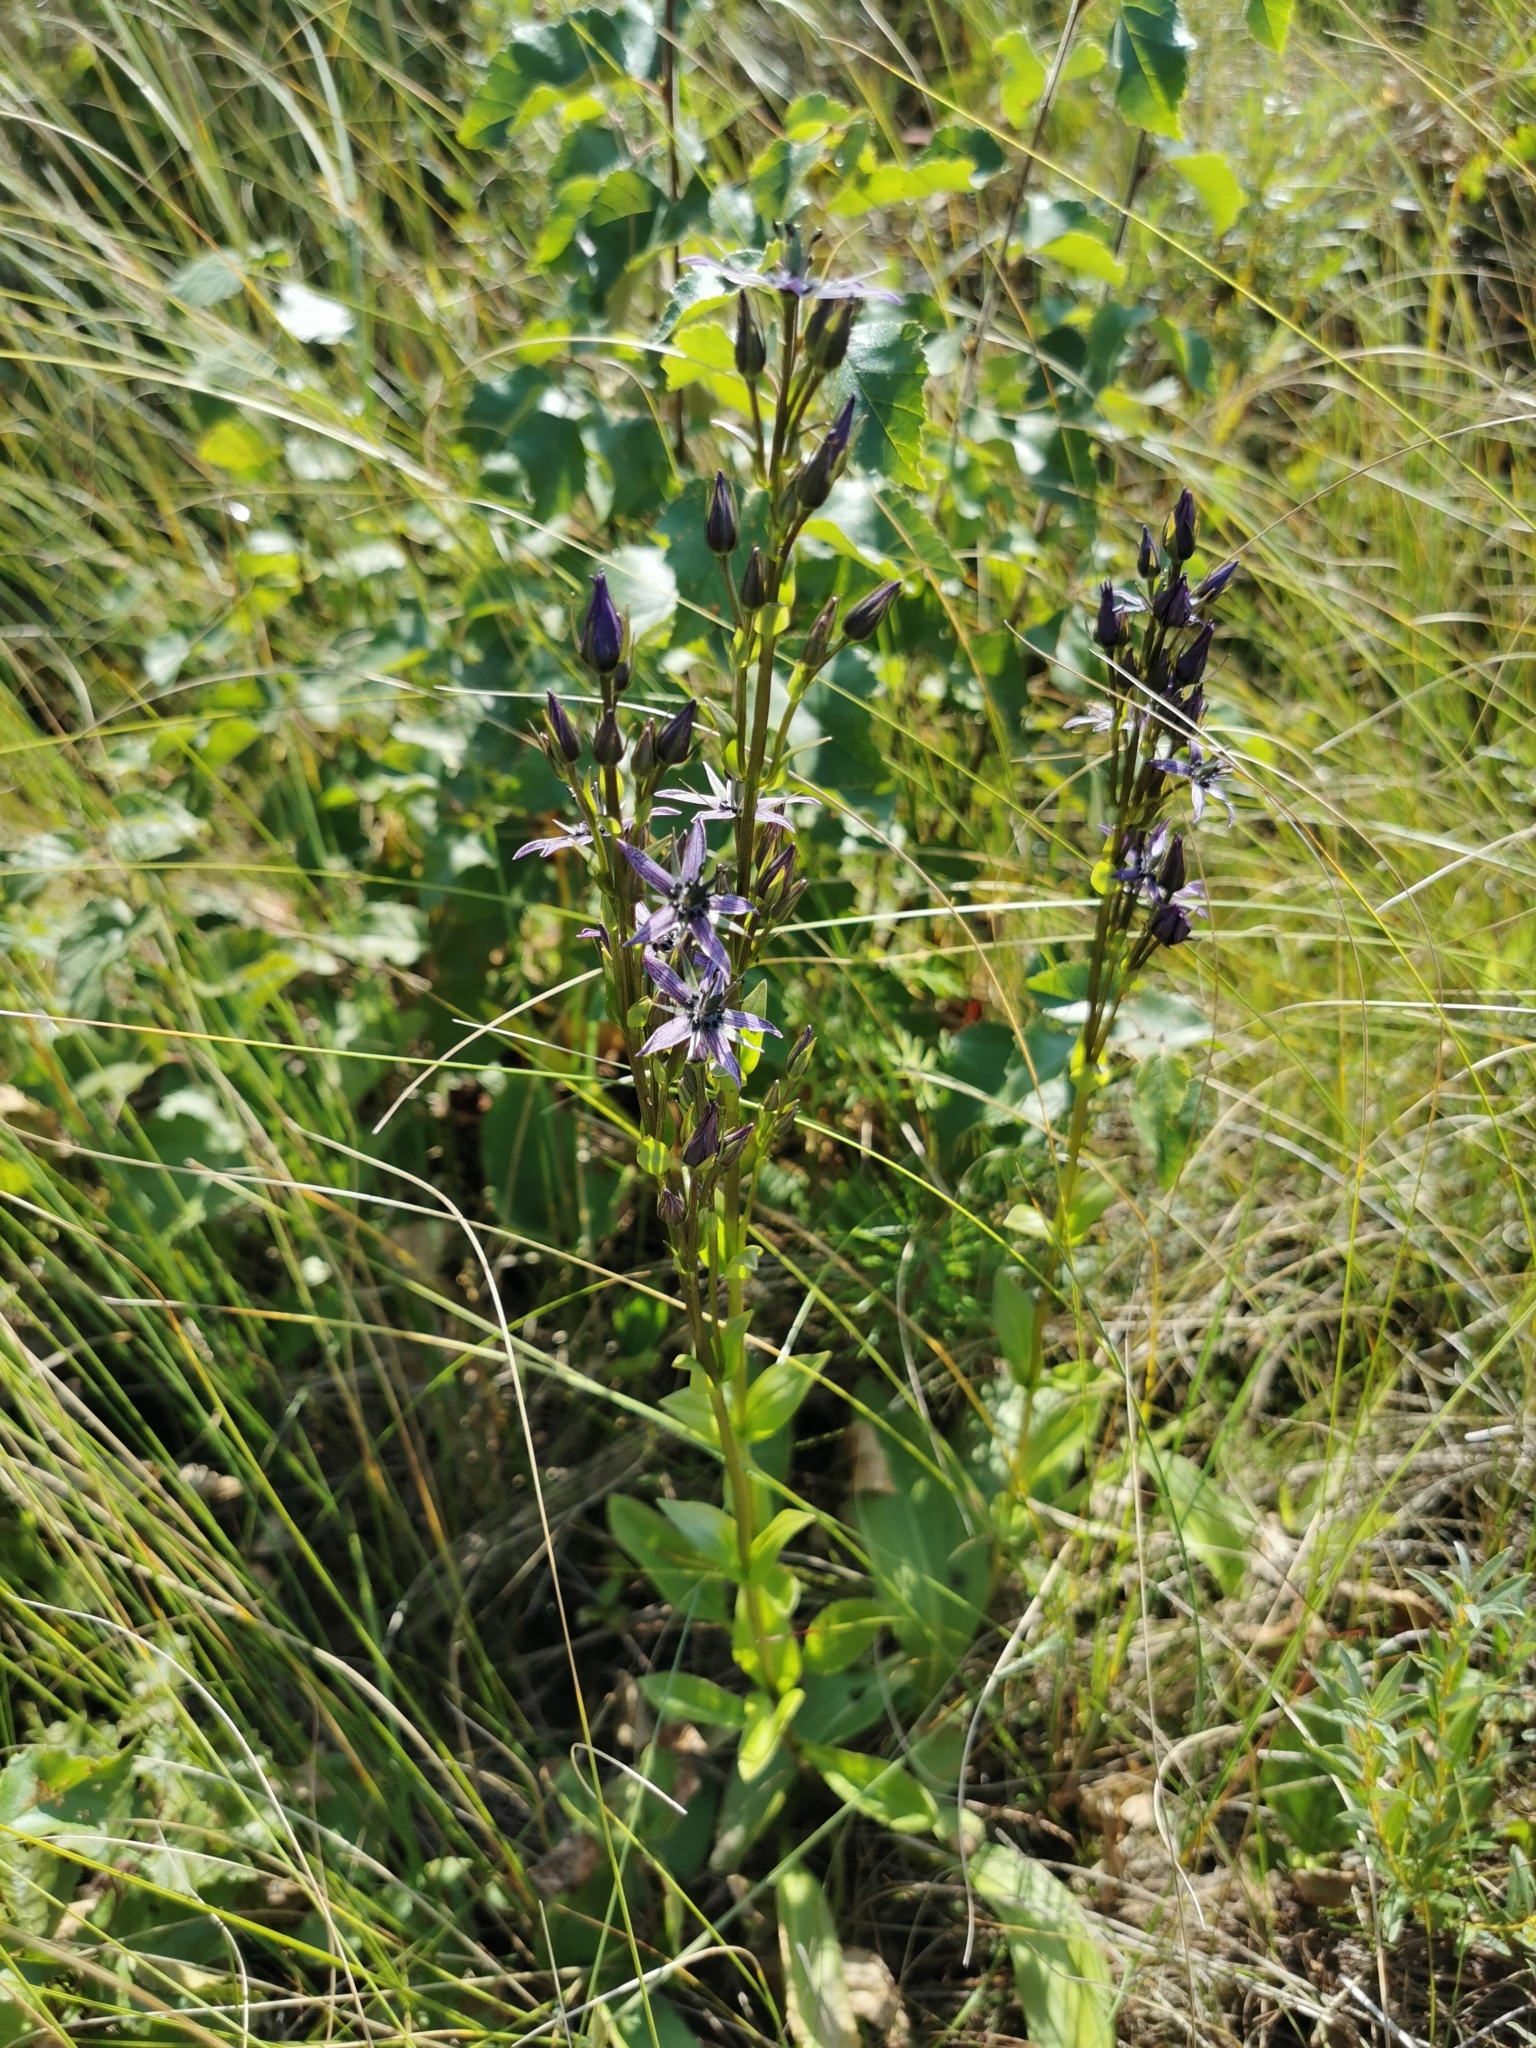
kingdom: Plantae
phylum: Tracheophyta
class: Magnoliopsida
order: Gentianales
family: Gentianaceae
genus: Swertia
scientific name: Swertia perennis
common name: Alpine bog swertia
